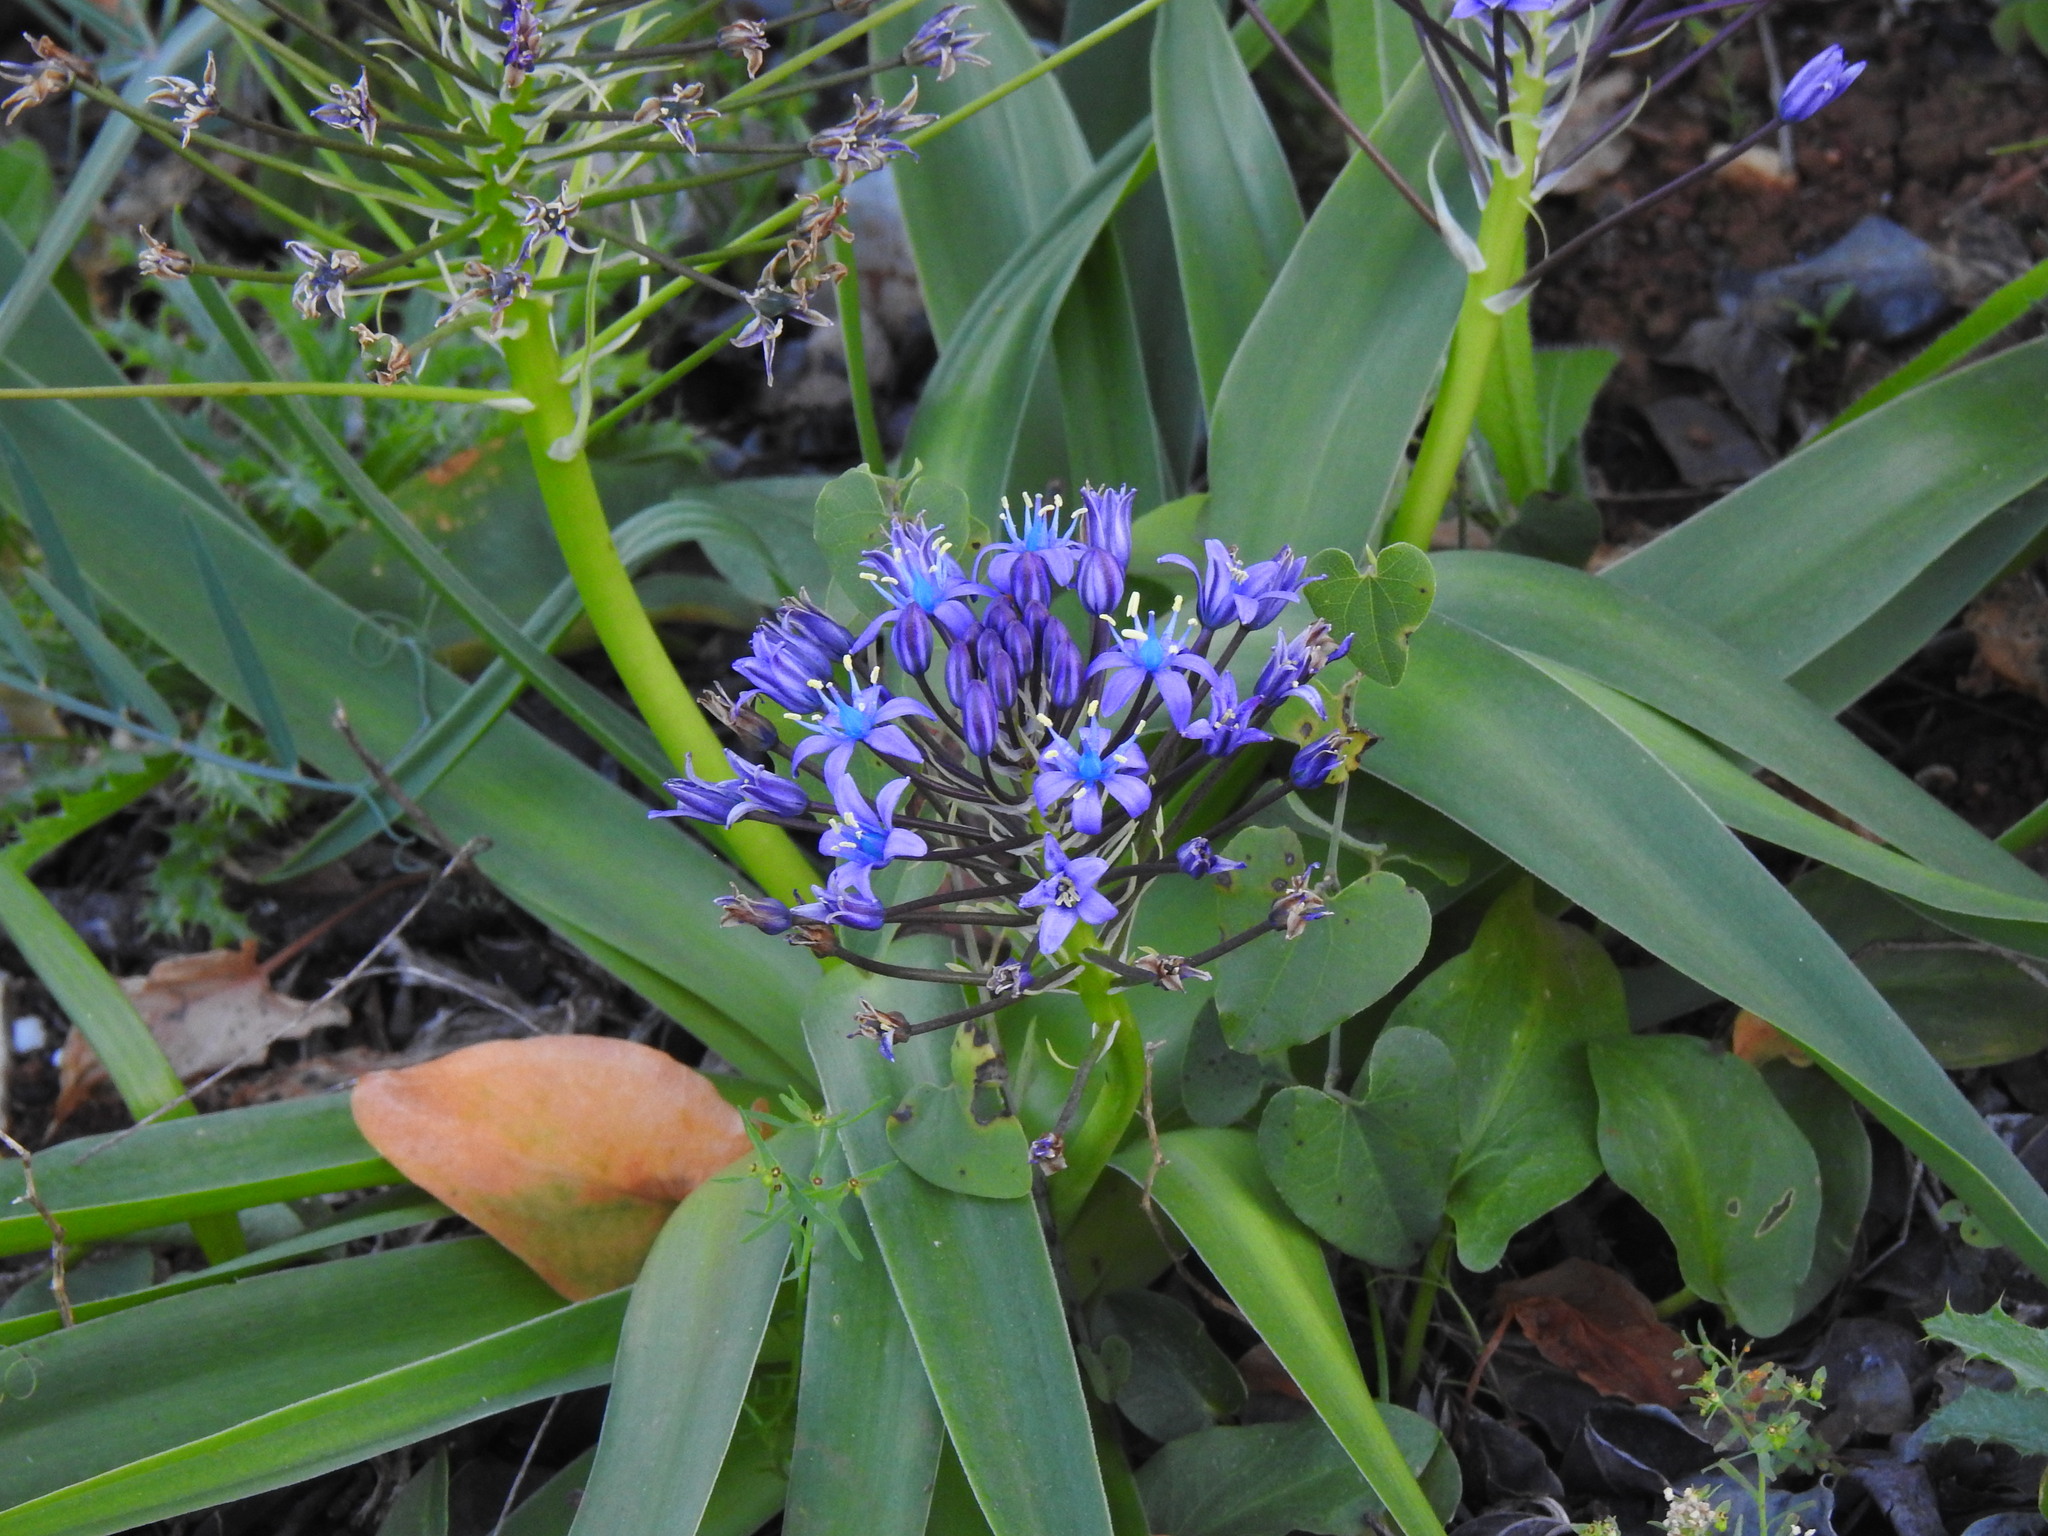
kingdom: Plantae
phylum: Tracheophyta
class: Liliopsida
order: Asparagales
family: Asparagaceae
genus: Scilla
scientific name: Scilla peruviana
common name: Portuguese squill
